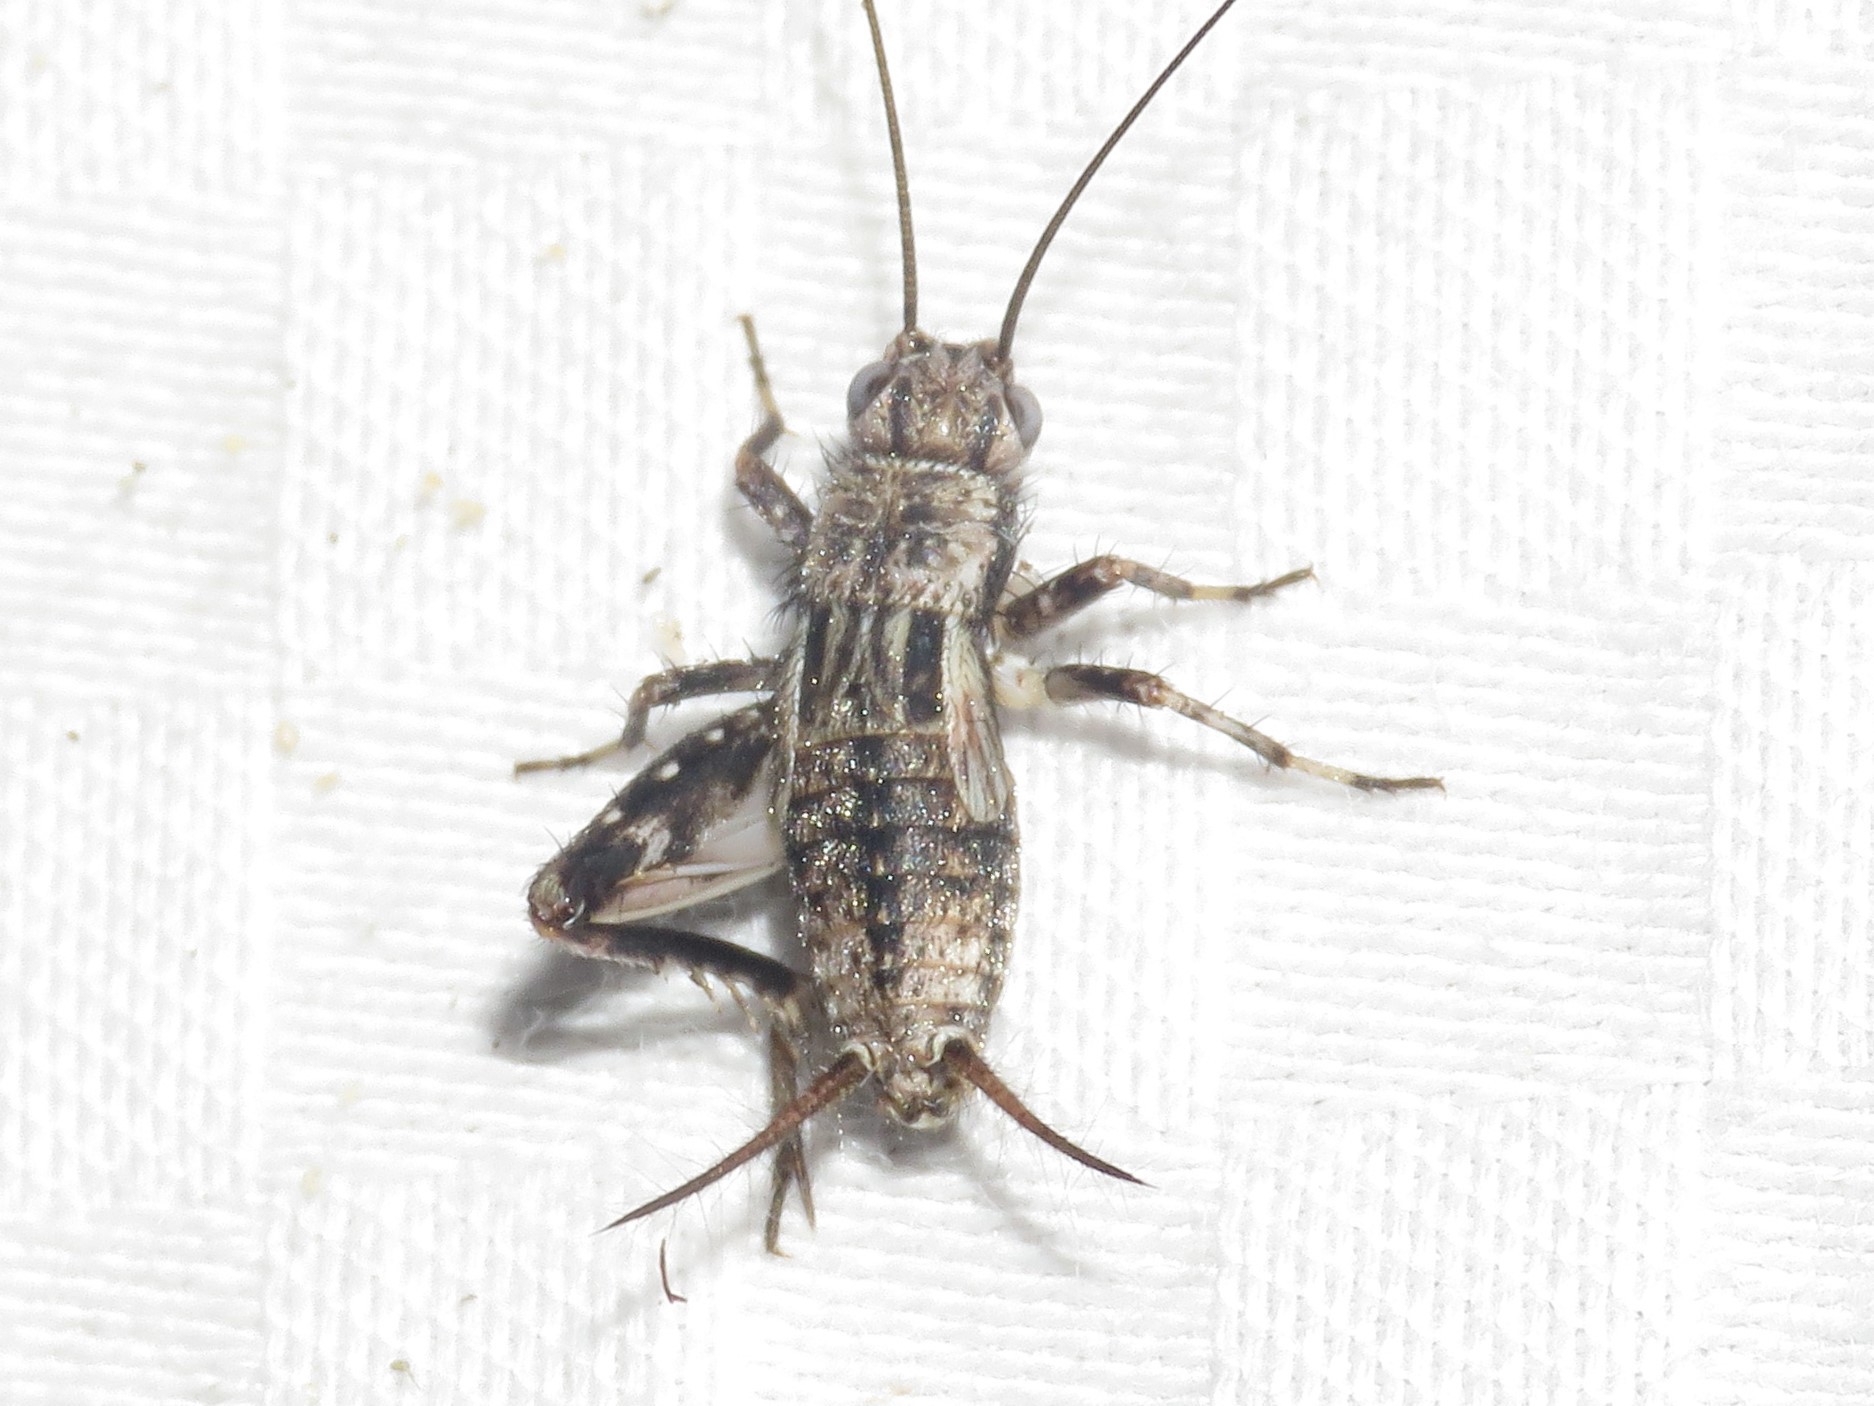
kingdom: Animalia
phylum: Arthropoda
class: Insecta
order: Orthoptera
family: Trigonidiidae
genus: Allonemobius
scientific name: Allonemobius griseus
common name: Gray ground cricket
